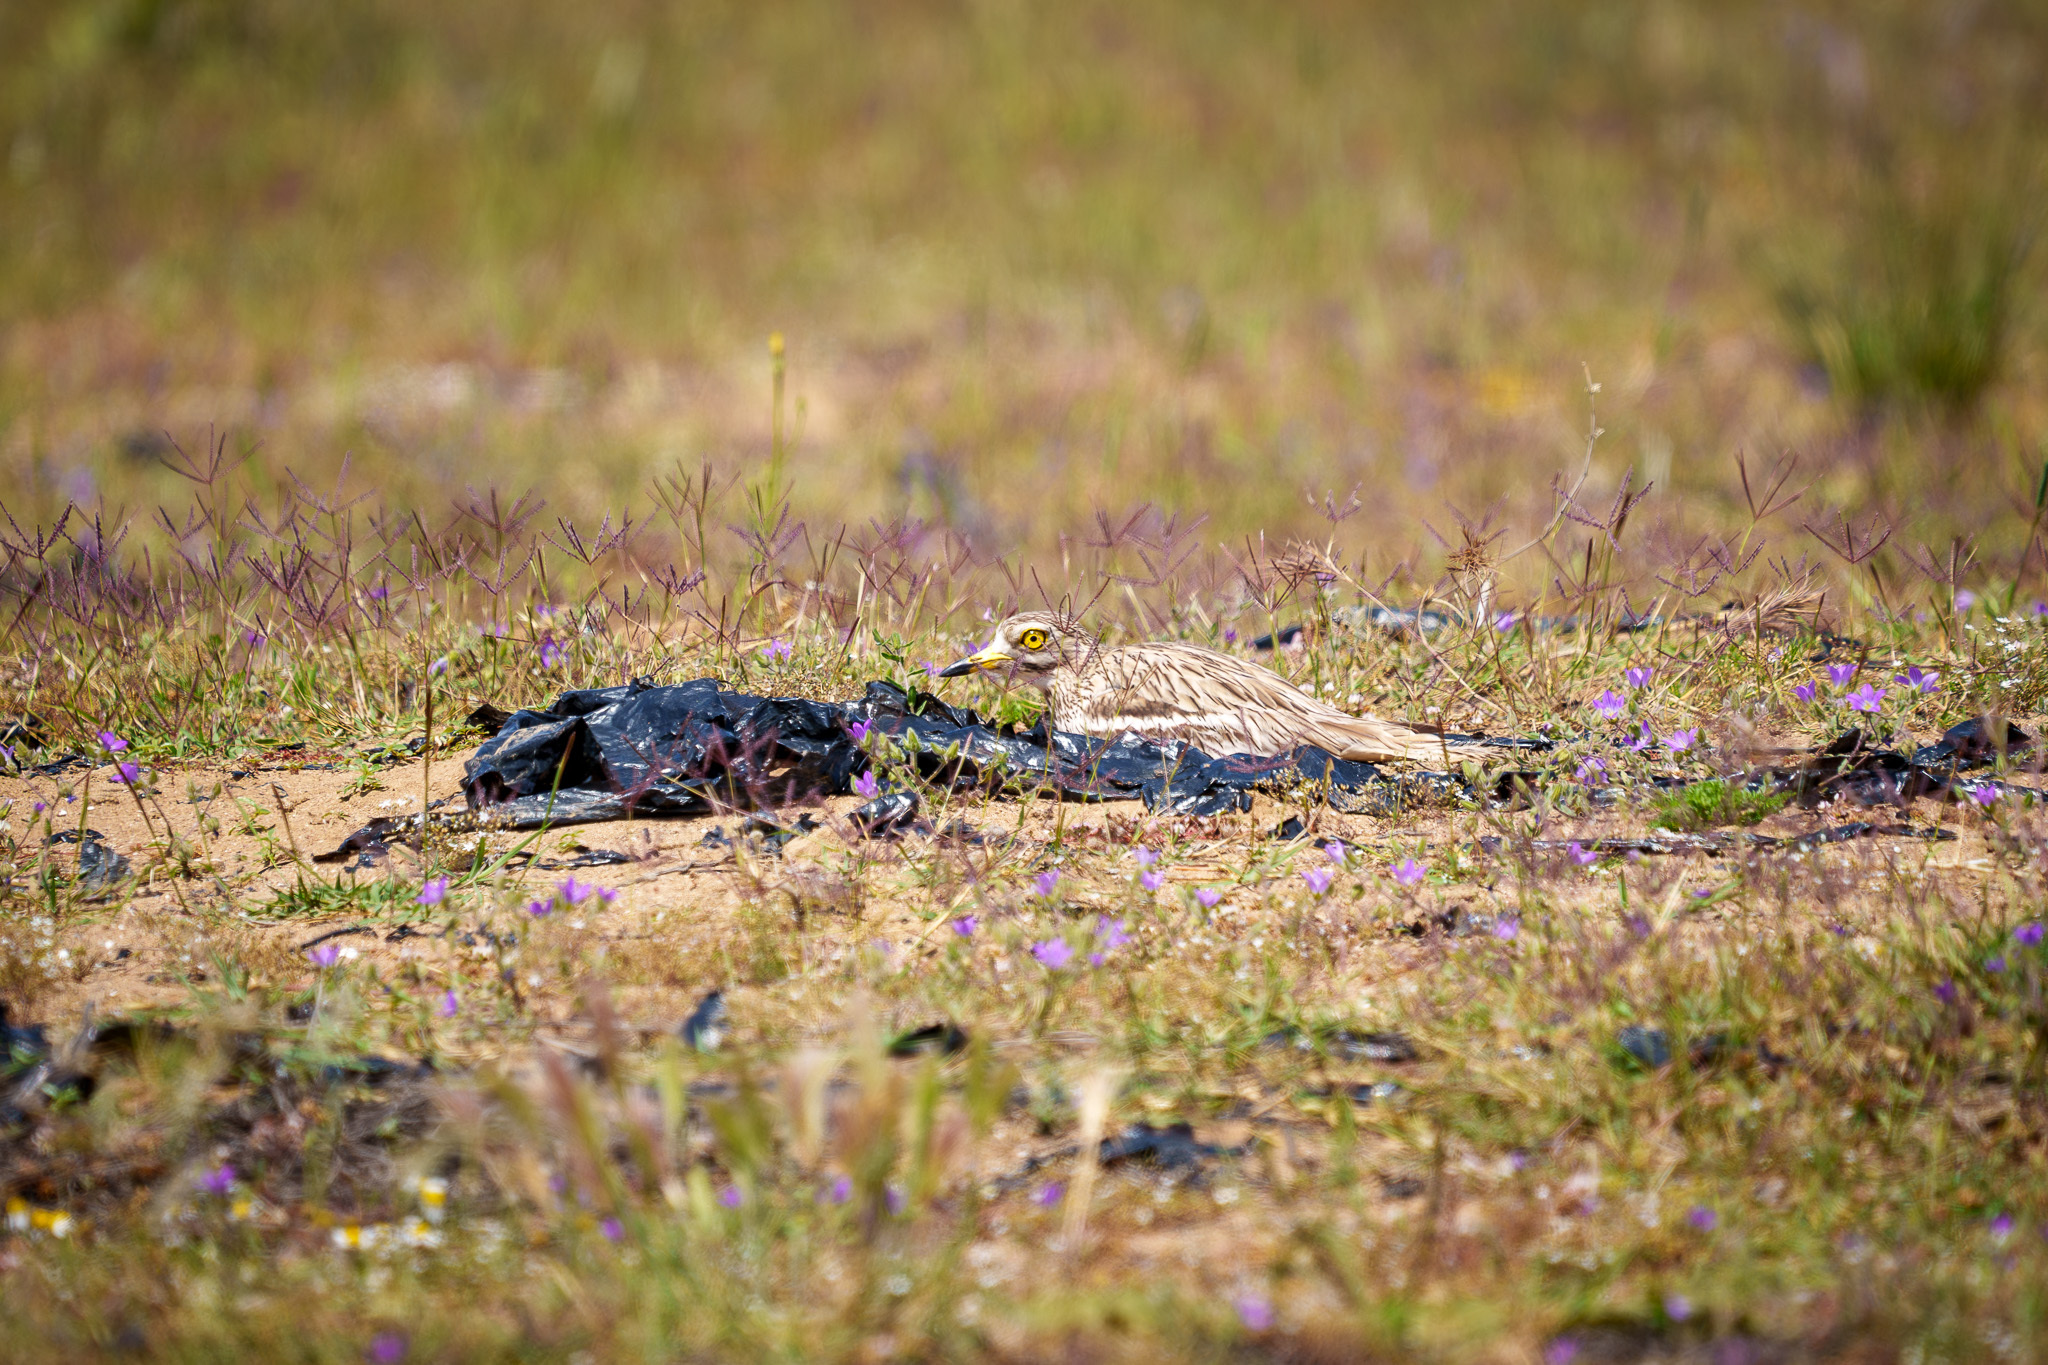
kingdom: Animalia
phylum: Chordata
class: Aves
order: Charadriiformes
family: Burhinidae
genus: Burhinus
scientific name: Burhinus oedicnemus
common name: Eurasian stone-curlew
